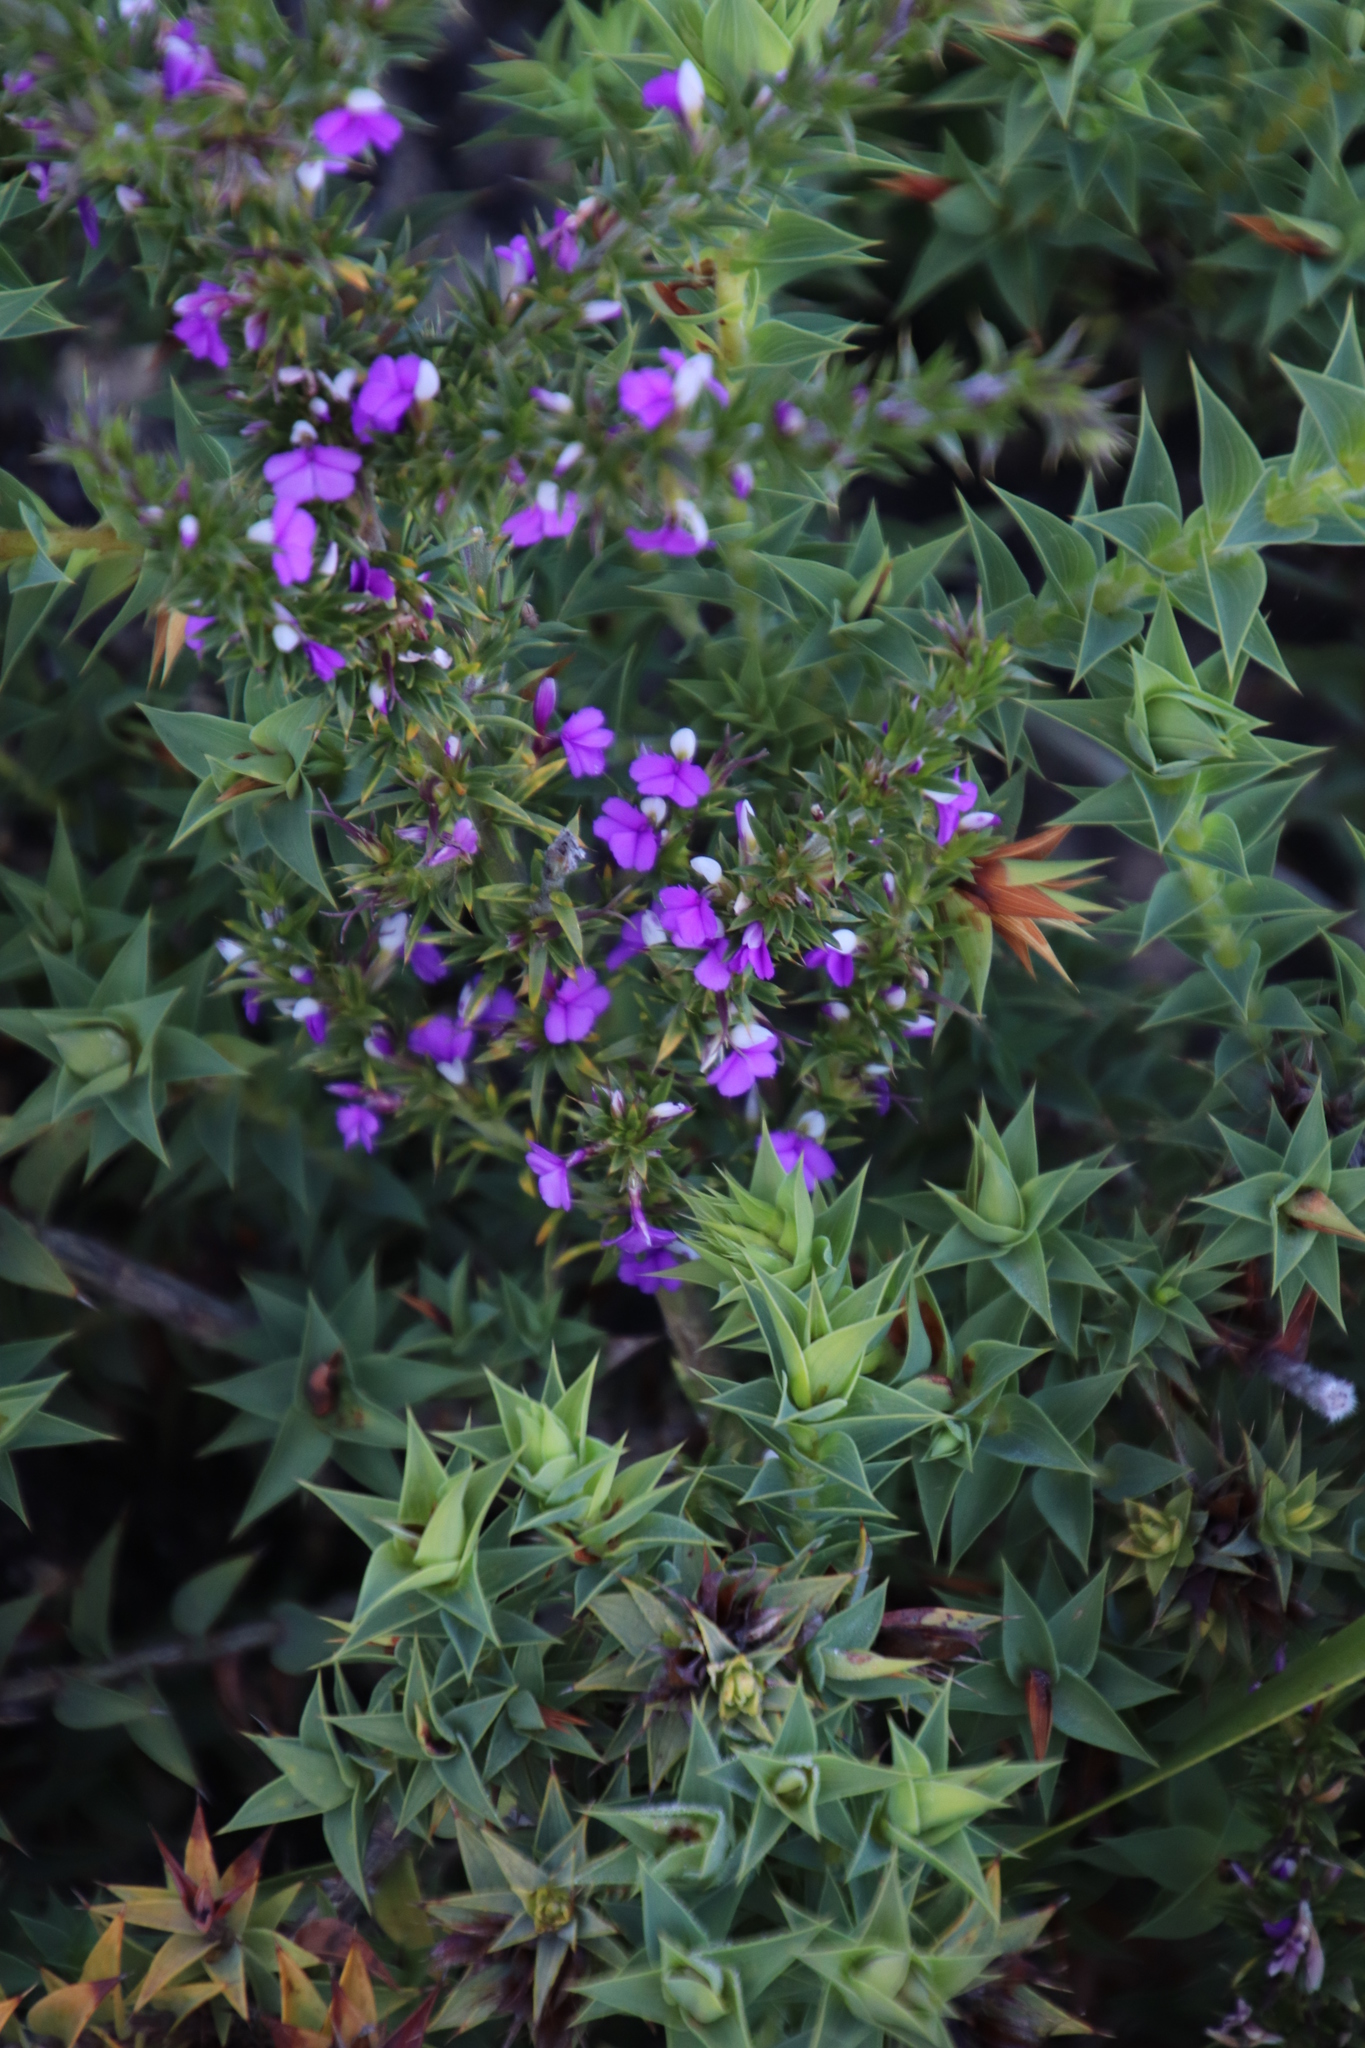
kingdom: Plantae
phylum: Tracheophyta
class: Magnoliopsida
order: Fabales
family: Polygalaceae
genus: Muraltia
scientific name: Muraltia heisteria
